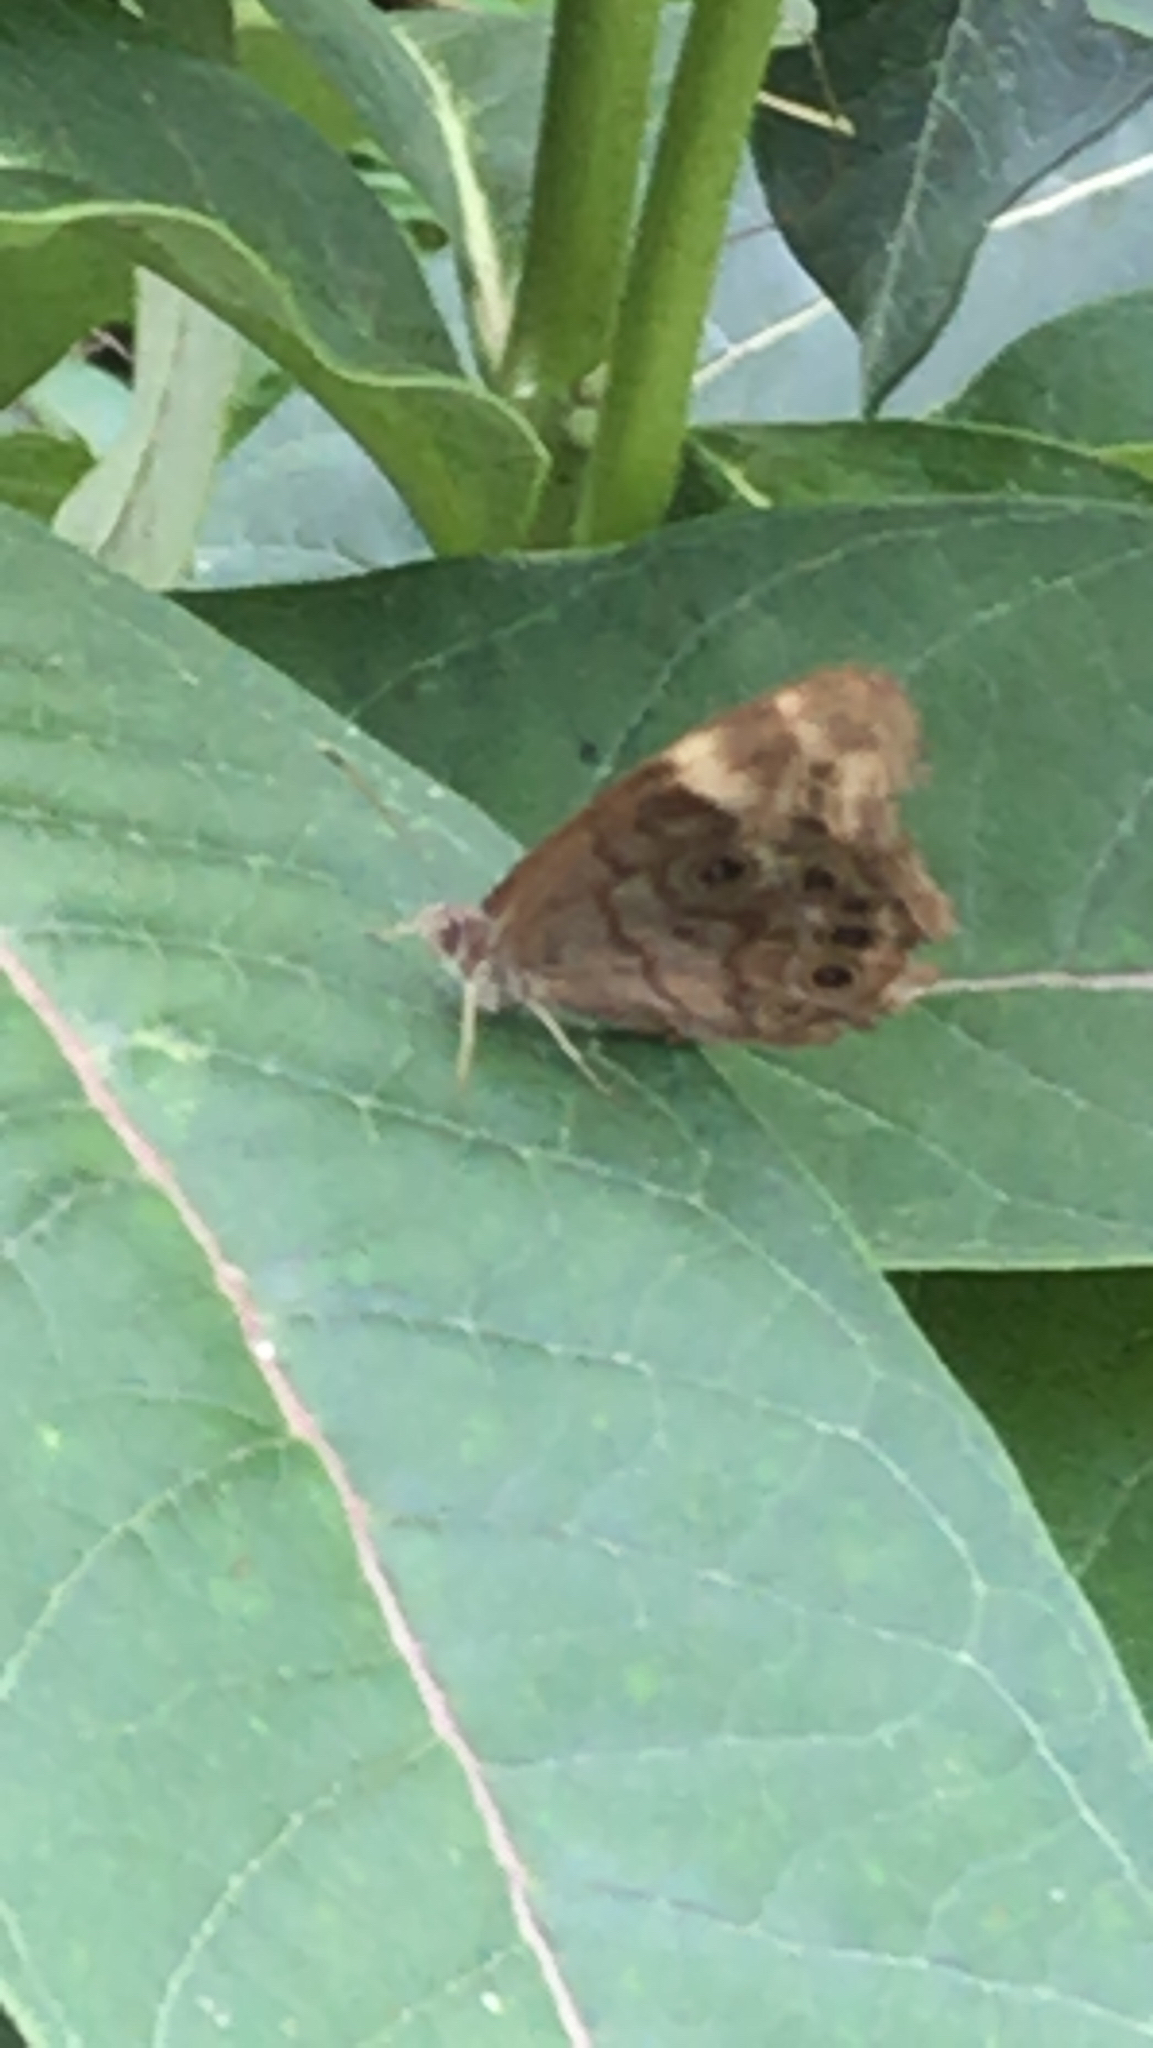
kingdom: Animalia
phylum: Arthropoda
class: Insecta
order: Lepidoptera
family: Nymphalidae
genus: Lethe
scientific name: Lethe anthedon
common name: Northern pearly-eye
